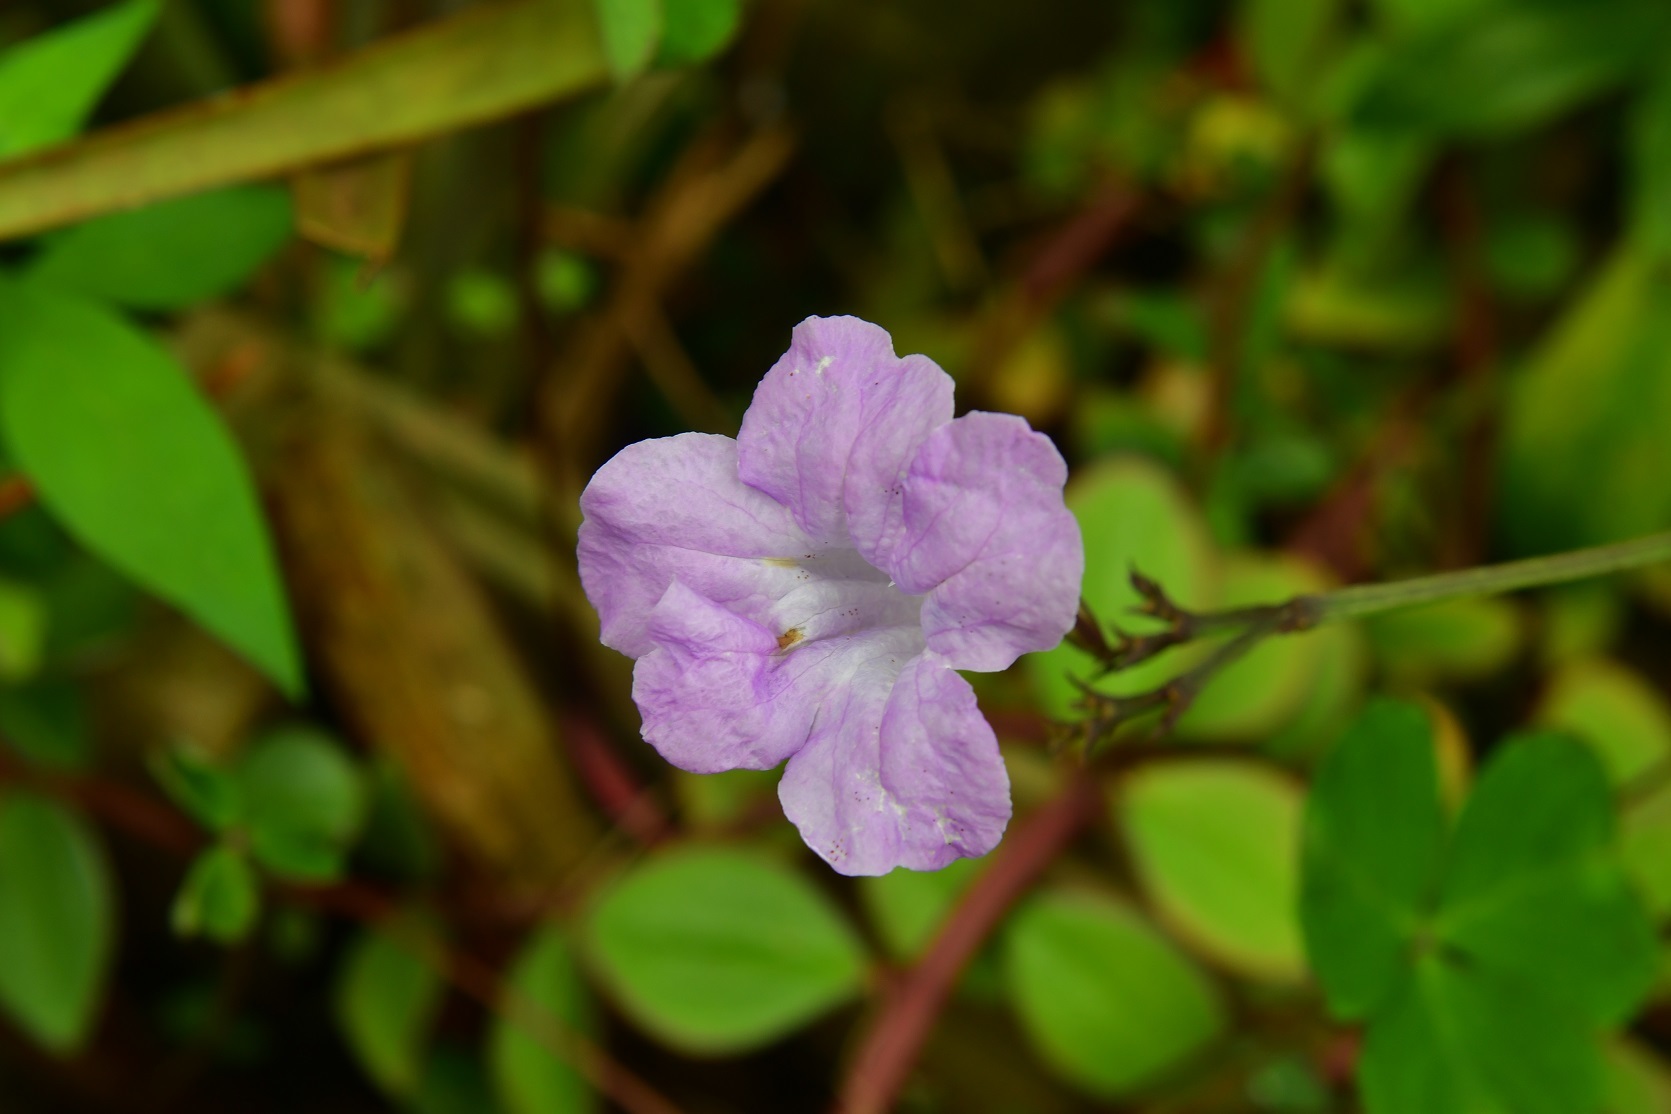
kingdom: Plantae
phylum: Tracheophyta
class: Magnoliopsida
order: Lamiales
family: Acanthaceae
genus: Ruellia
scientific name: Ruellia breedlovei
